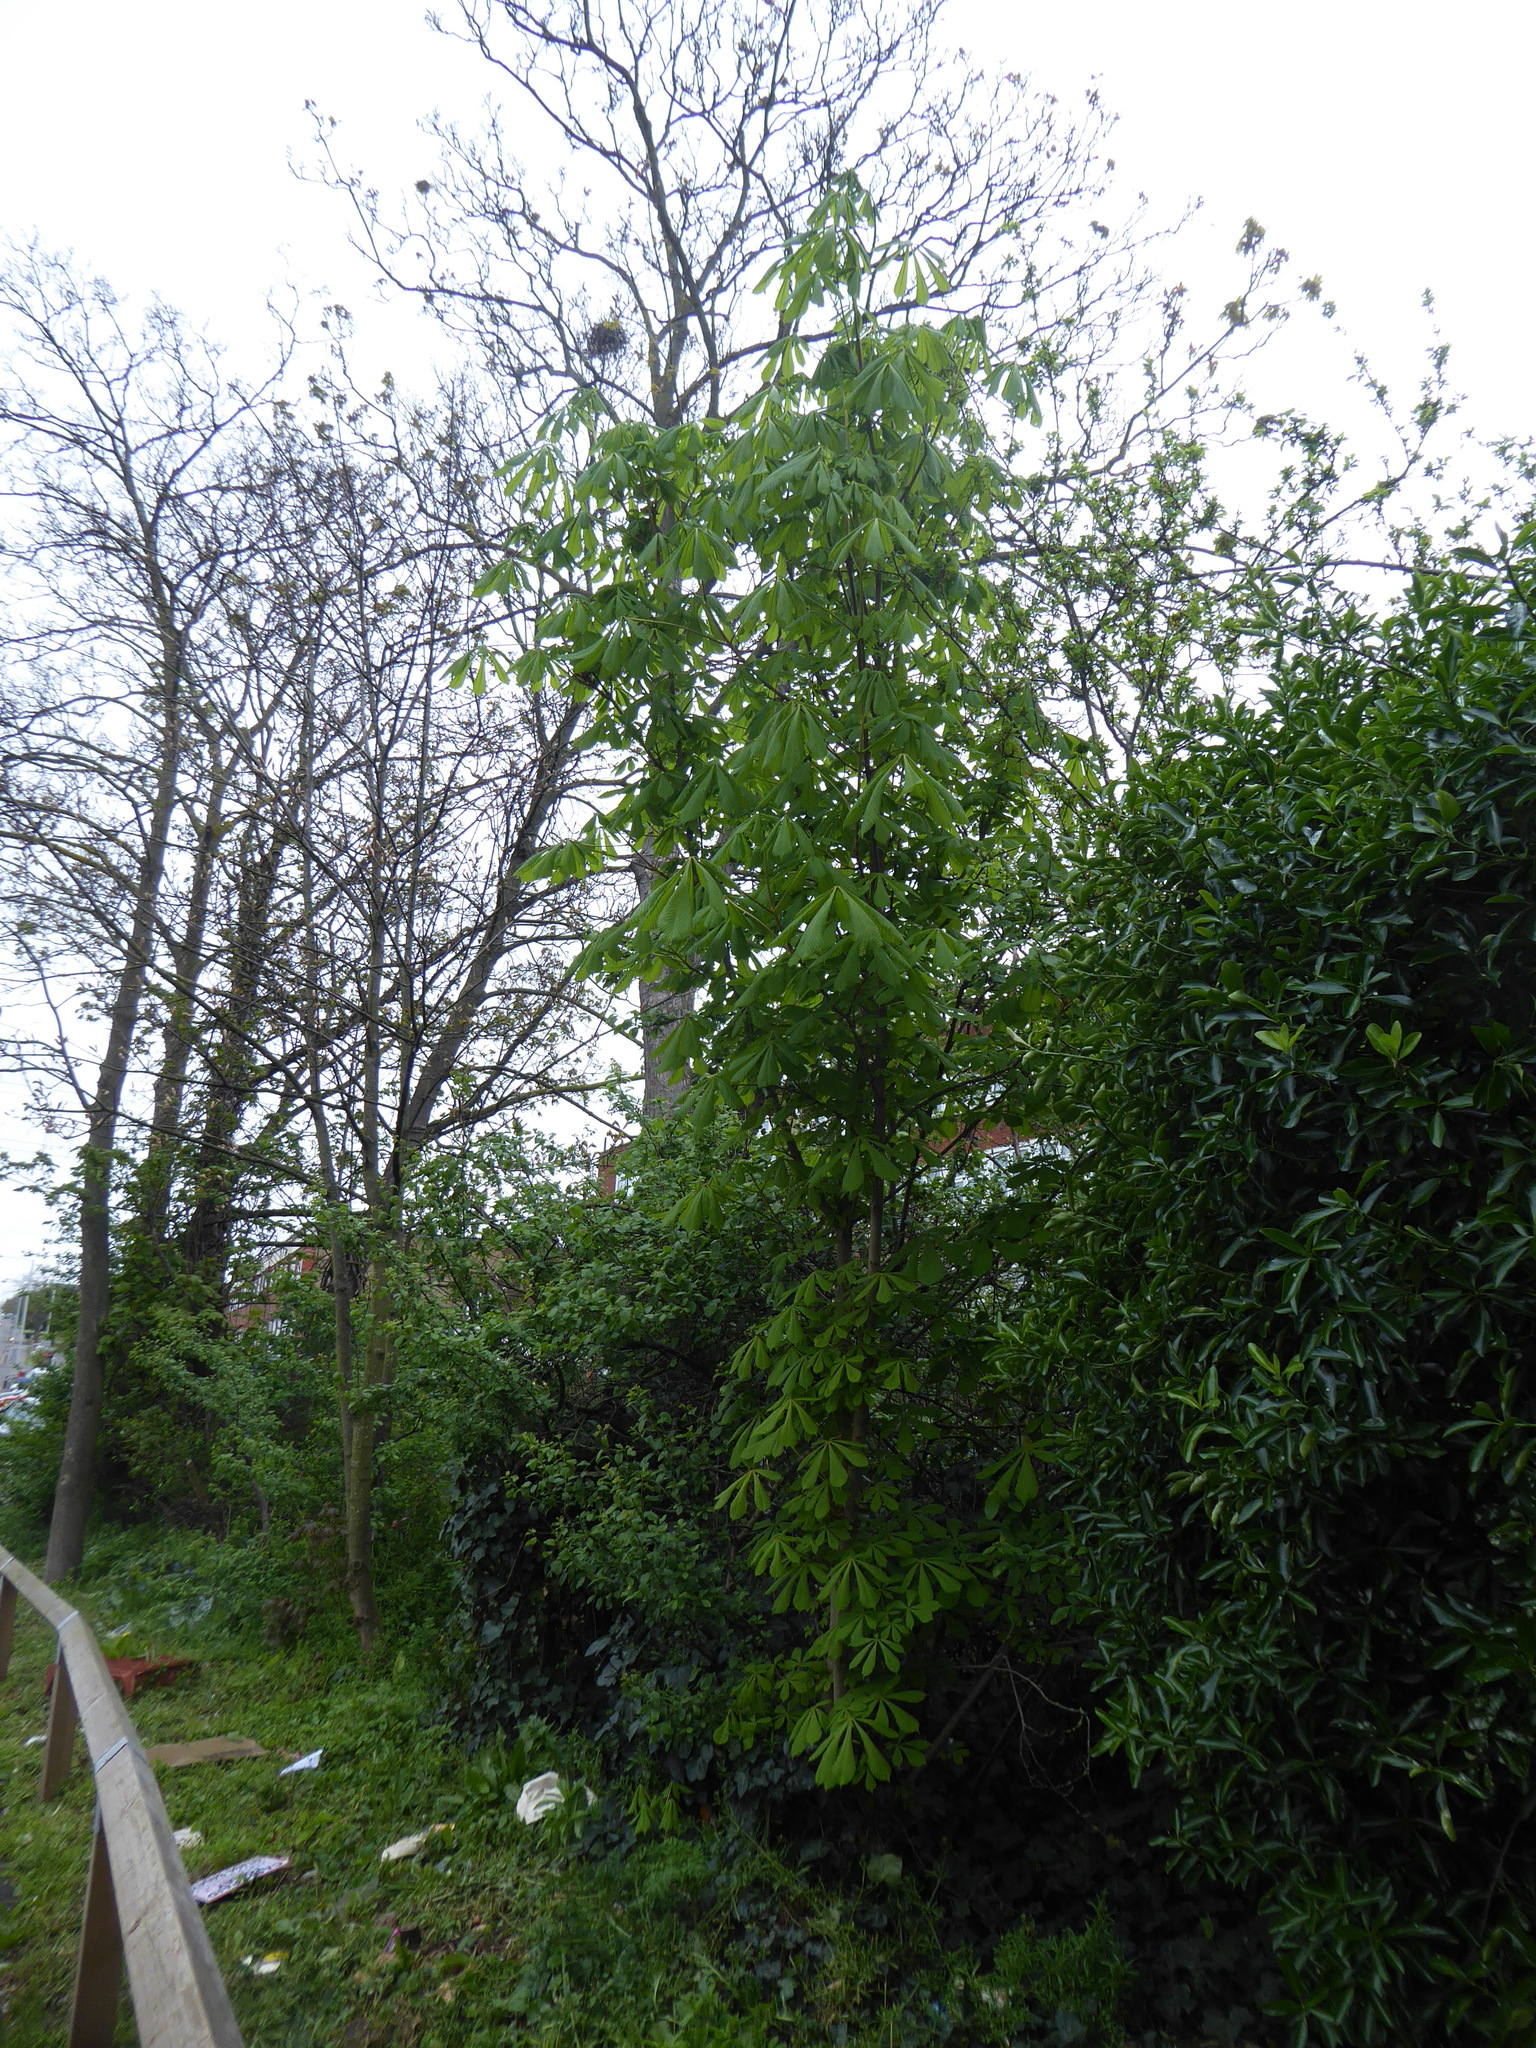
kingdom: Plantae
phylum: Tracheophyta
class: Magnoliopsida
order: Sapindales
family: Sapindaceae
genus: Aesculus
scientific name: Aesculus hippocastanum
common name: Horse-chestnut
